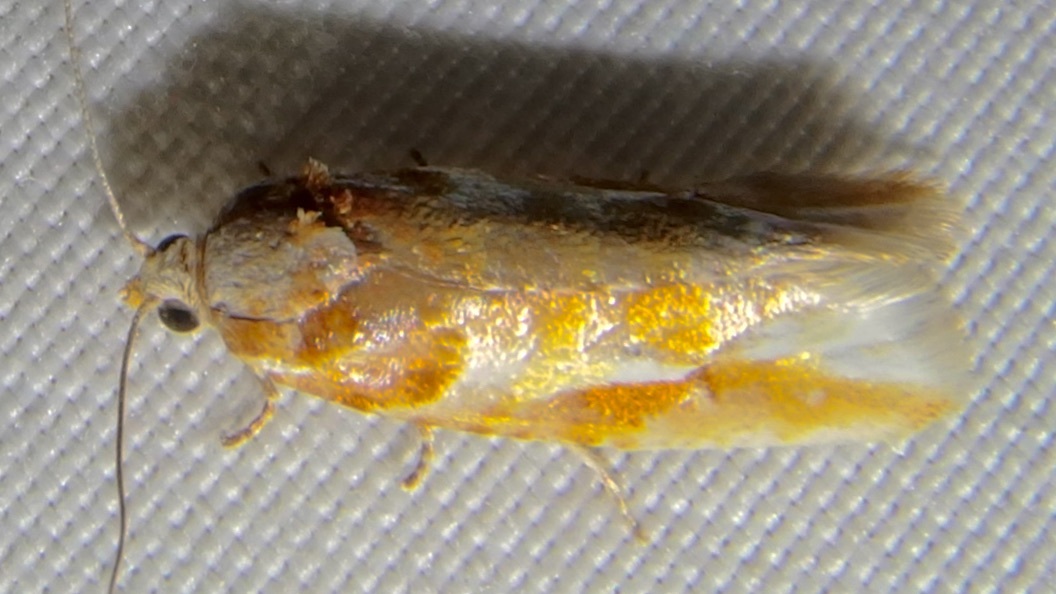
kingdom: Animalia
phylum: Arthropoda
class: Insecta
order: Lepidoptera
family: Tortricidae
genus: Eupinivora
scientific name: Eupinivora ponderosae
